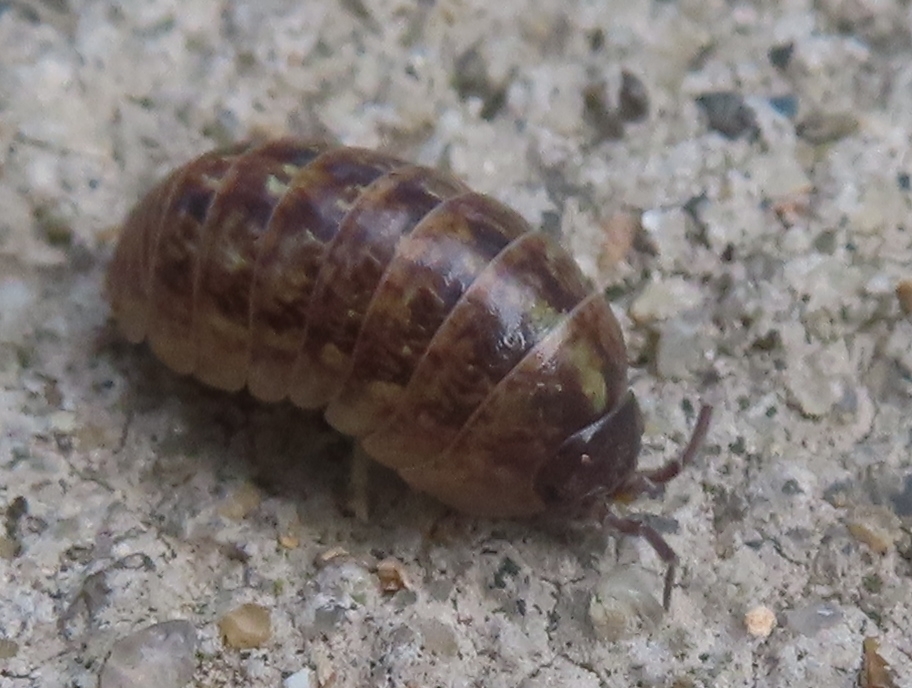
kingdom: Animalia
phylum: Arthropoda
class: Malacostraca
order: Isopoda
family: Armadillidiidae
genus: Armadillidium
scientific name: Armadillidium vulgare
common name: Common pill woodlouse
